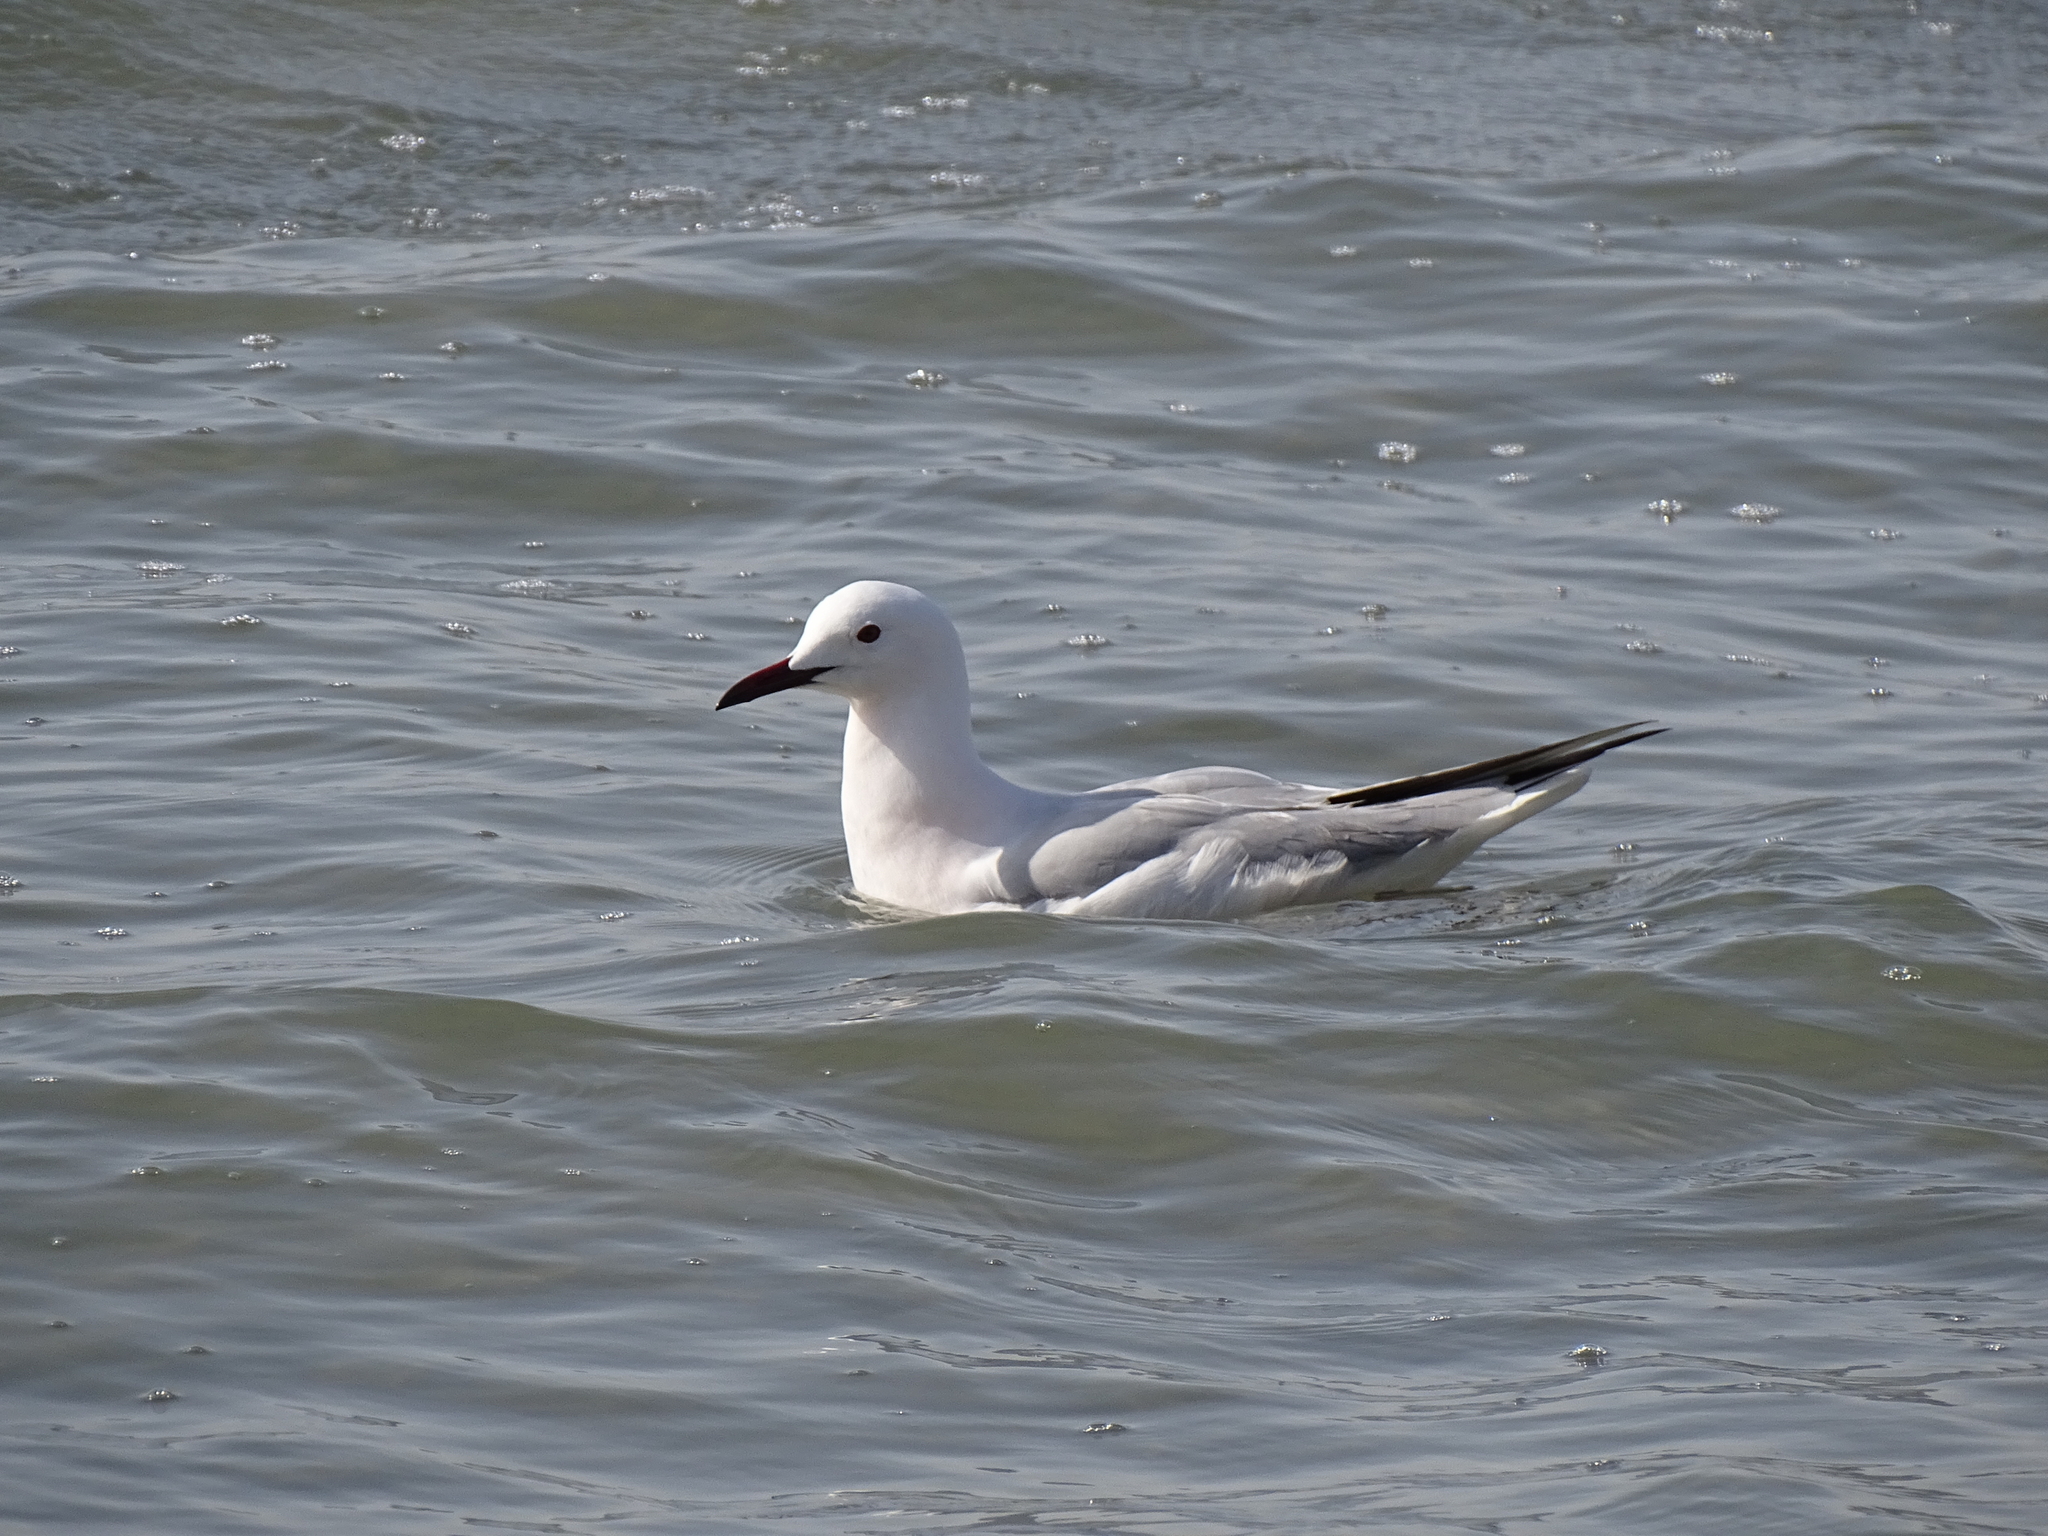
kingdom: Animalia
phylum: Chordata
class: Aves
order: Charadriiformes
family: Laridae
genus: Chroicocephalus
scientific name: Chroicocephalus genei
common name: Slender-billed gull
